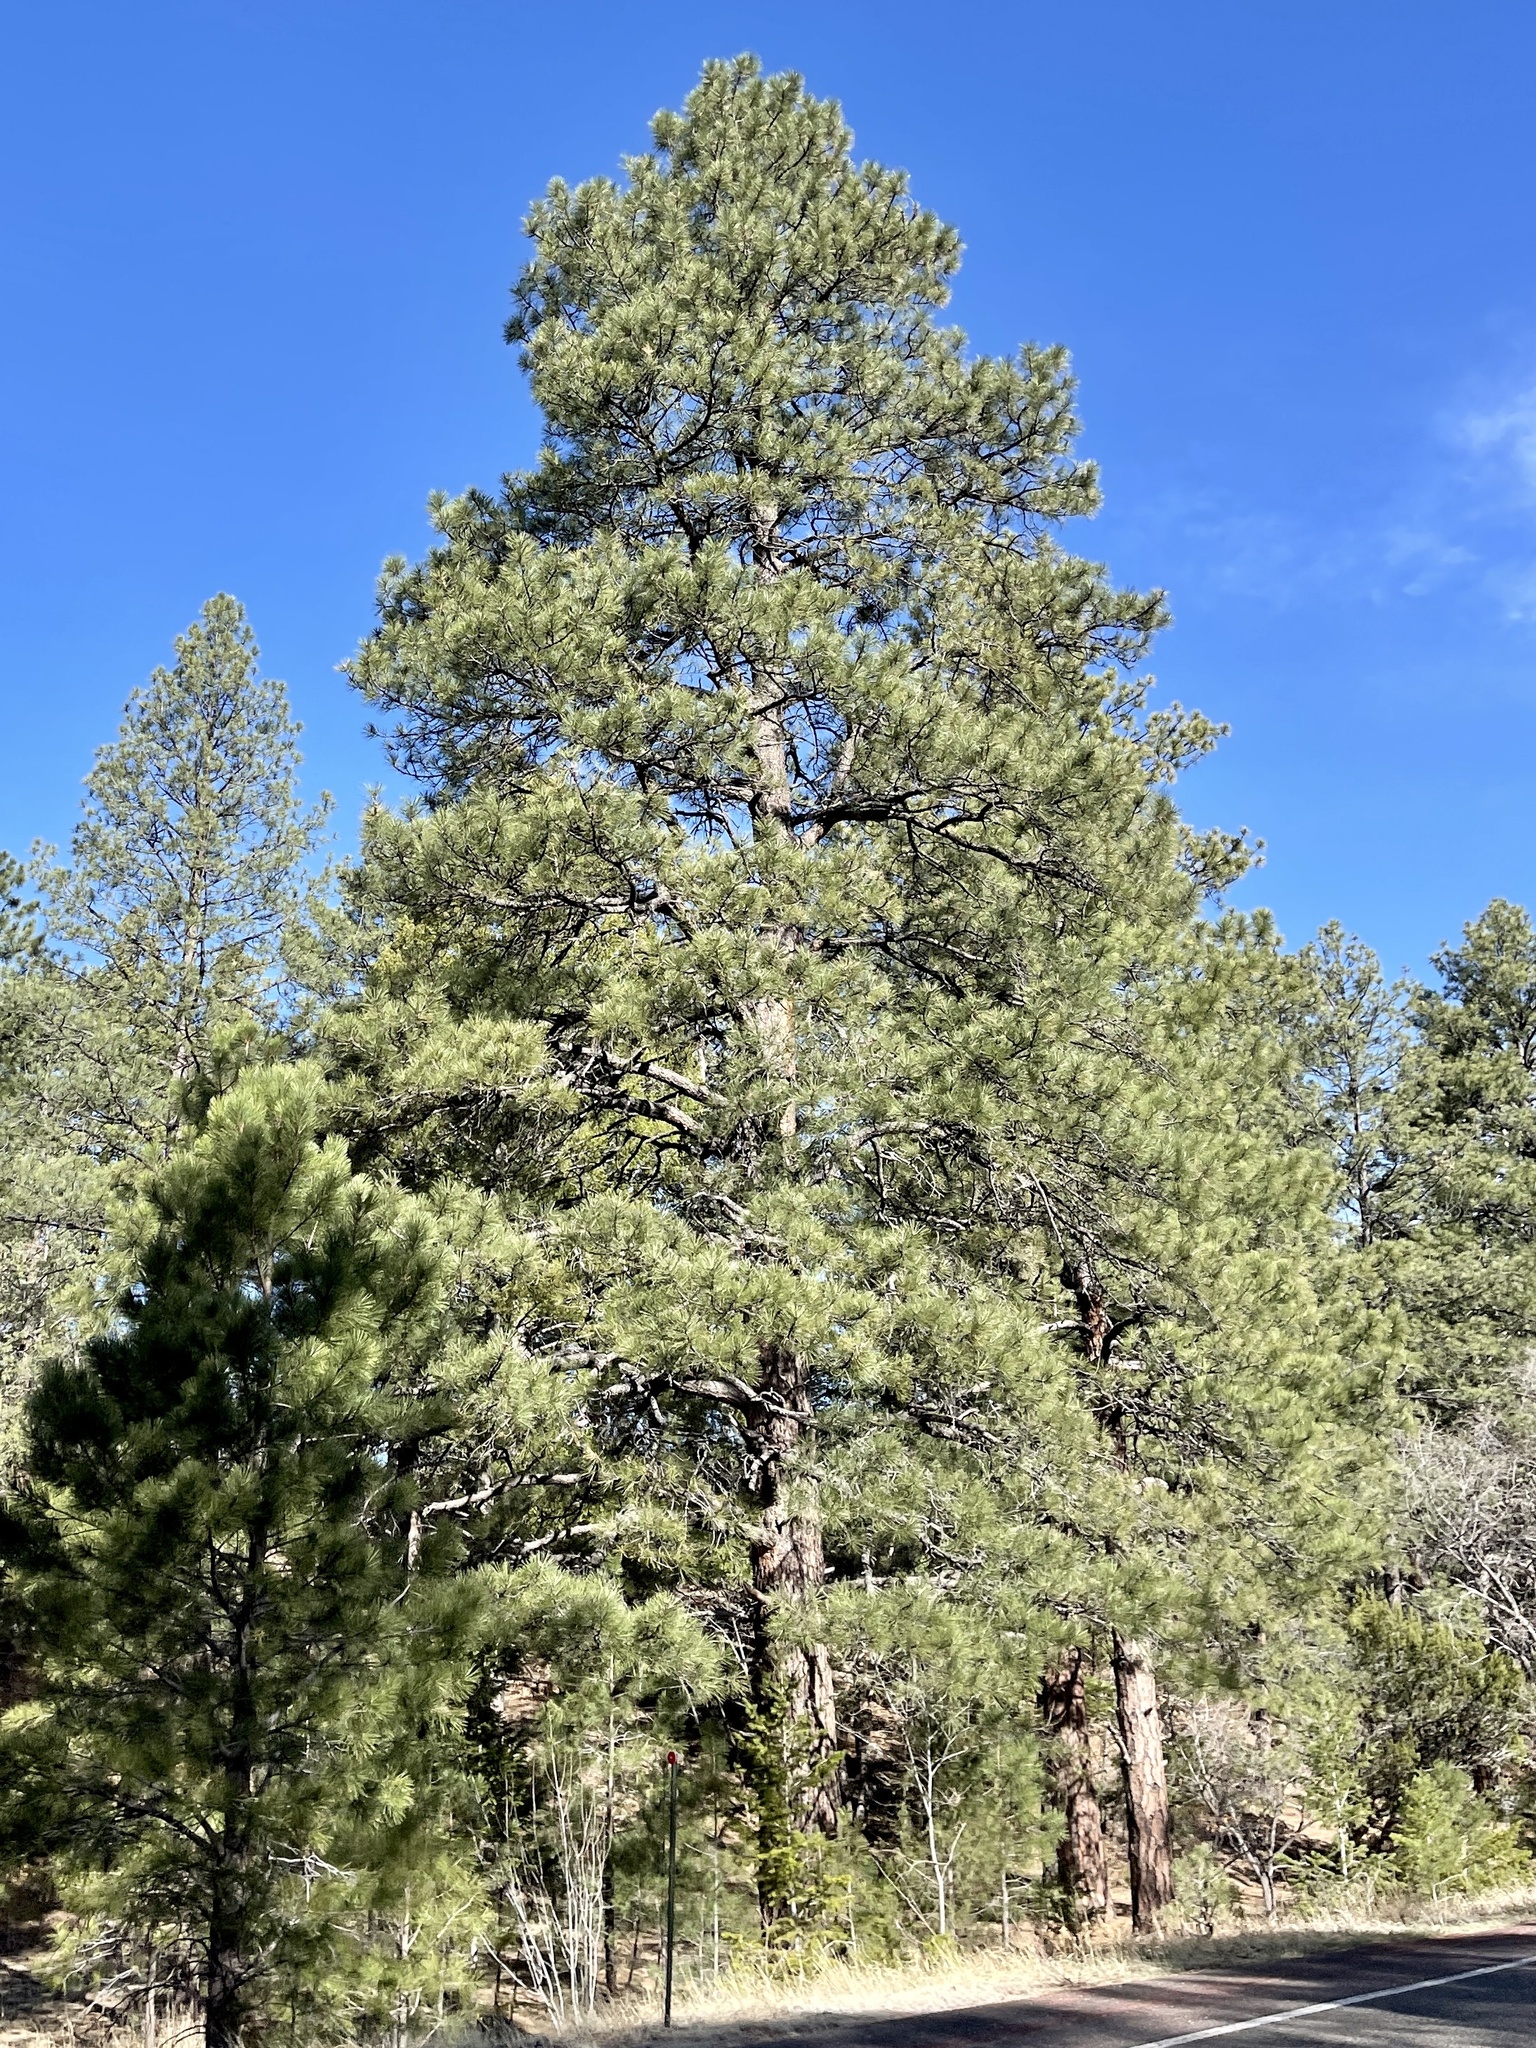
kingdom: Plantae
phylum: Tracheophyta
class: Pinopsida
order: Pinales
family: Pinaceae
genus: Pinus
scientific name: Pinus ponderosa
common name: Western yellow-pine
